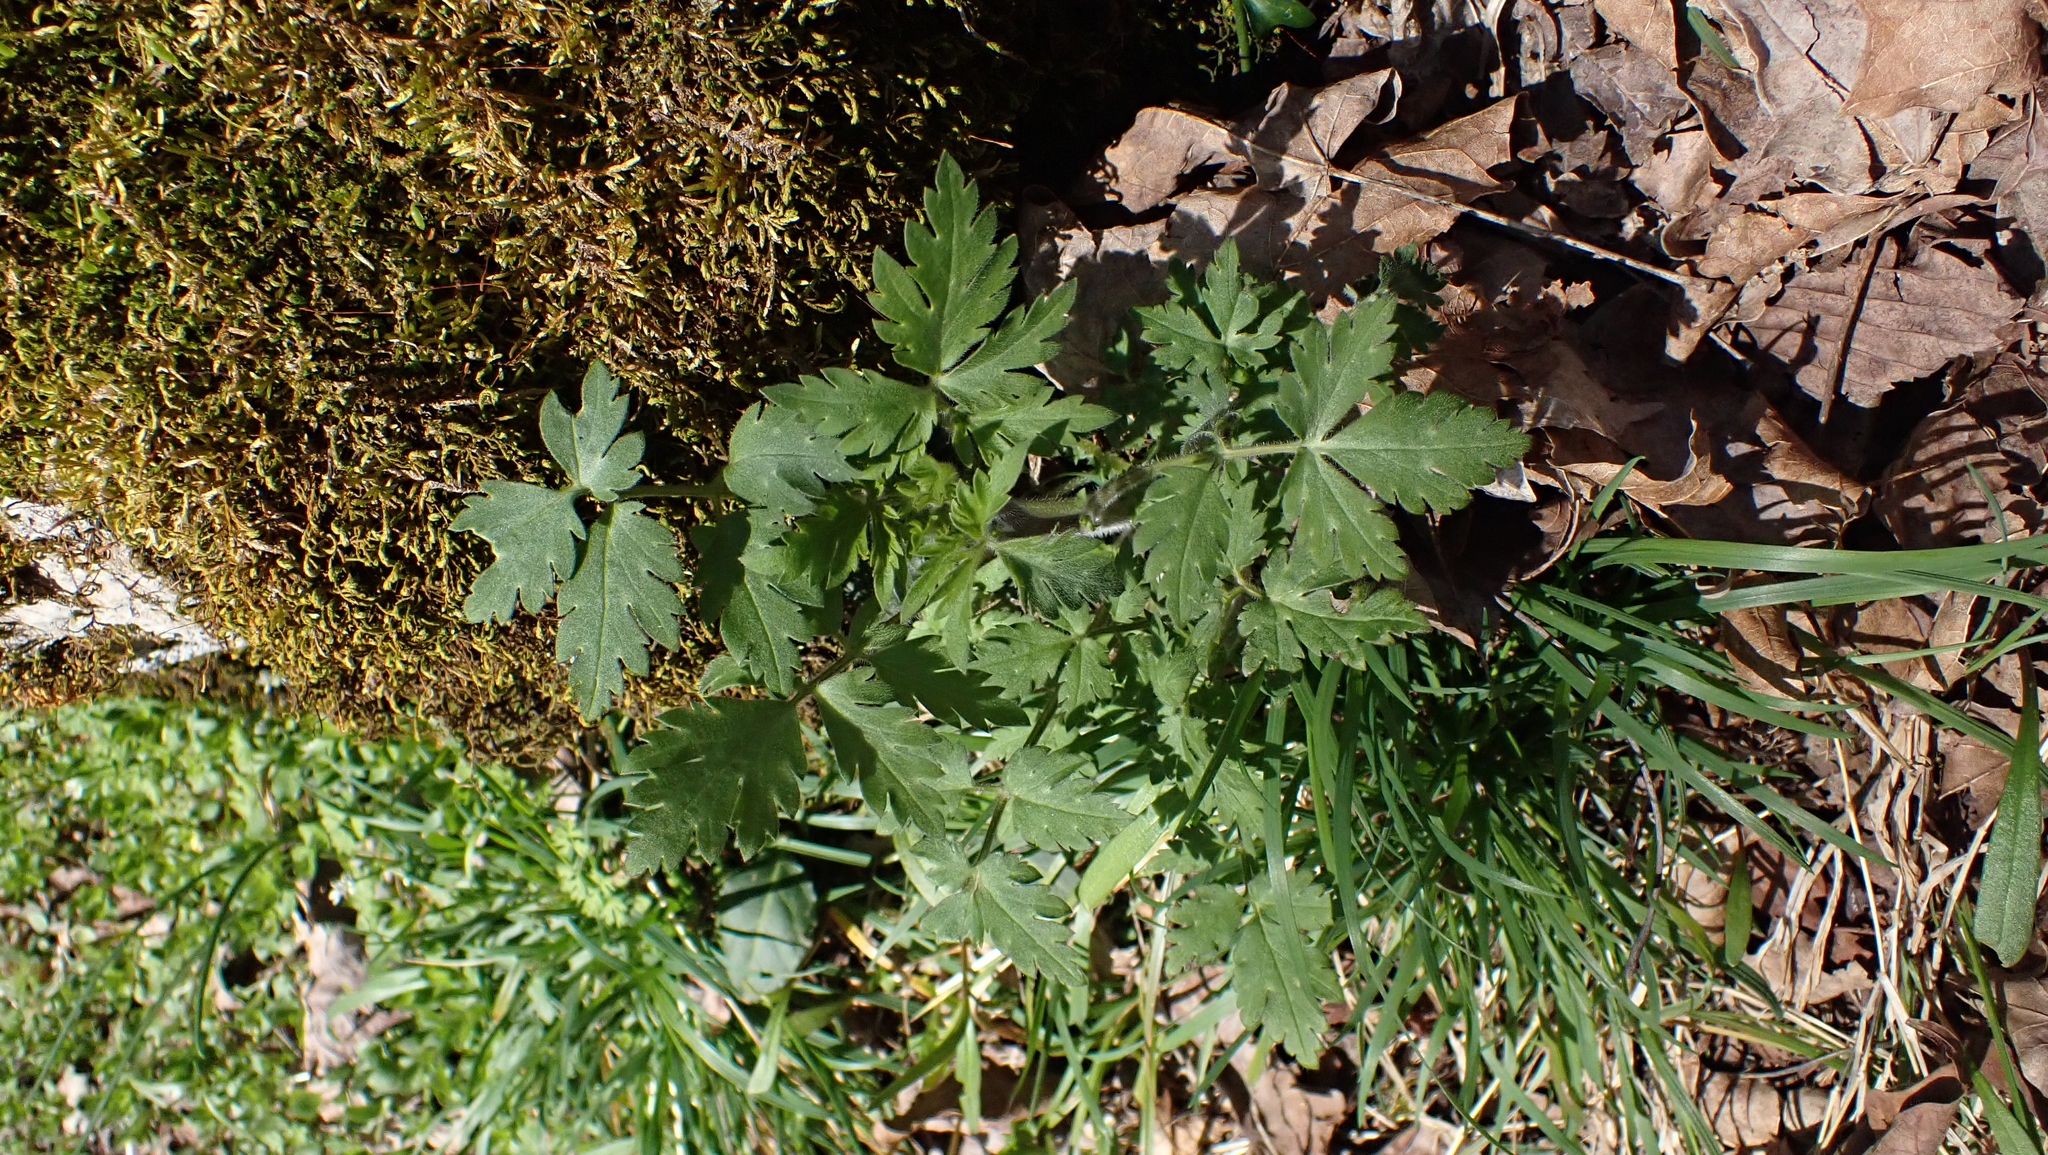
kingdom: Plantae
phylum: Tracheophyta
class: Magnoliopsida
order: Boraginales
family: Hydrophyllaceae
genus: Phacelia
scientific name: Phacelia bipinnatifida
